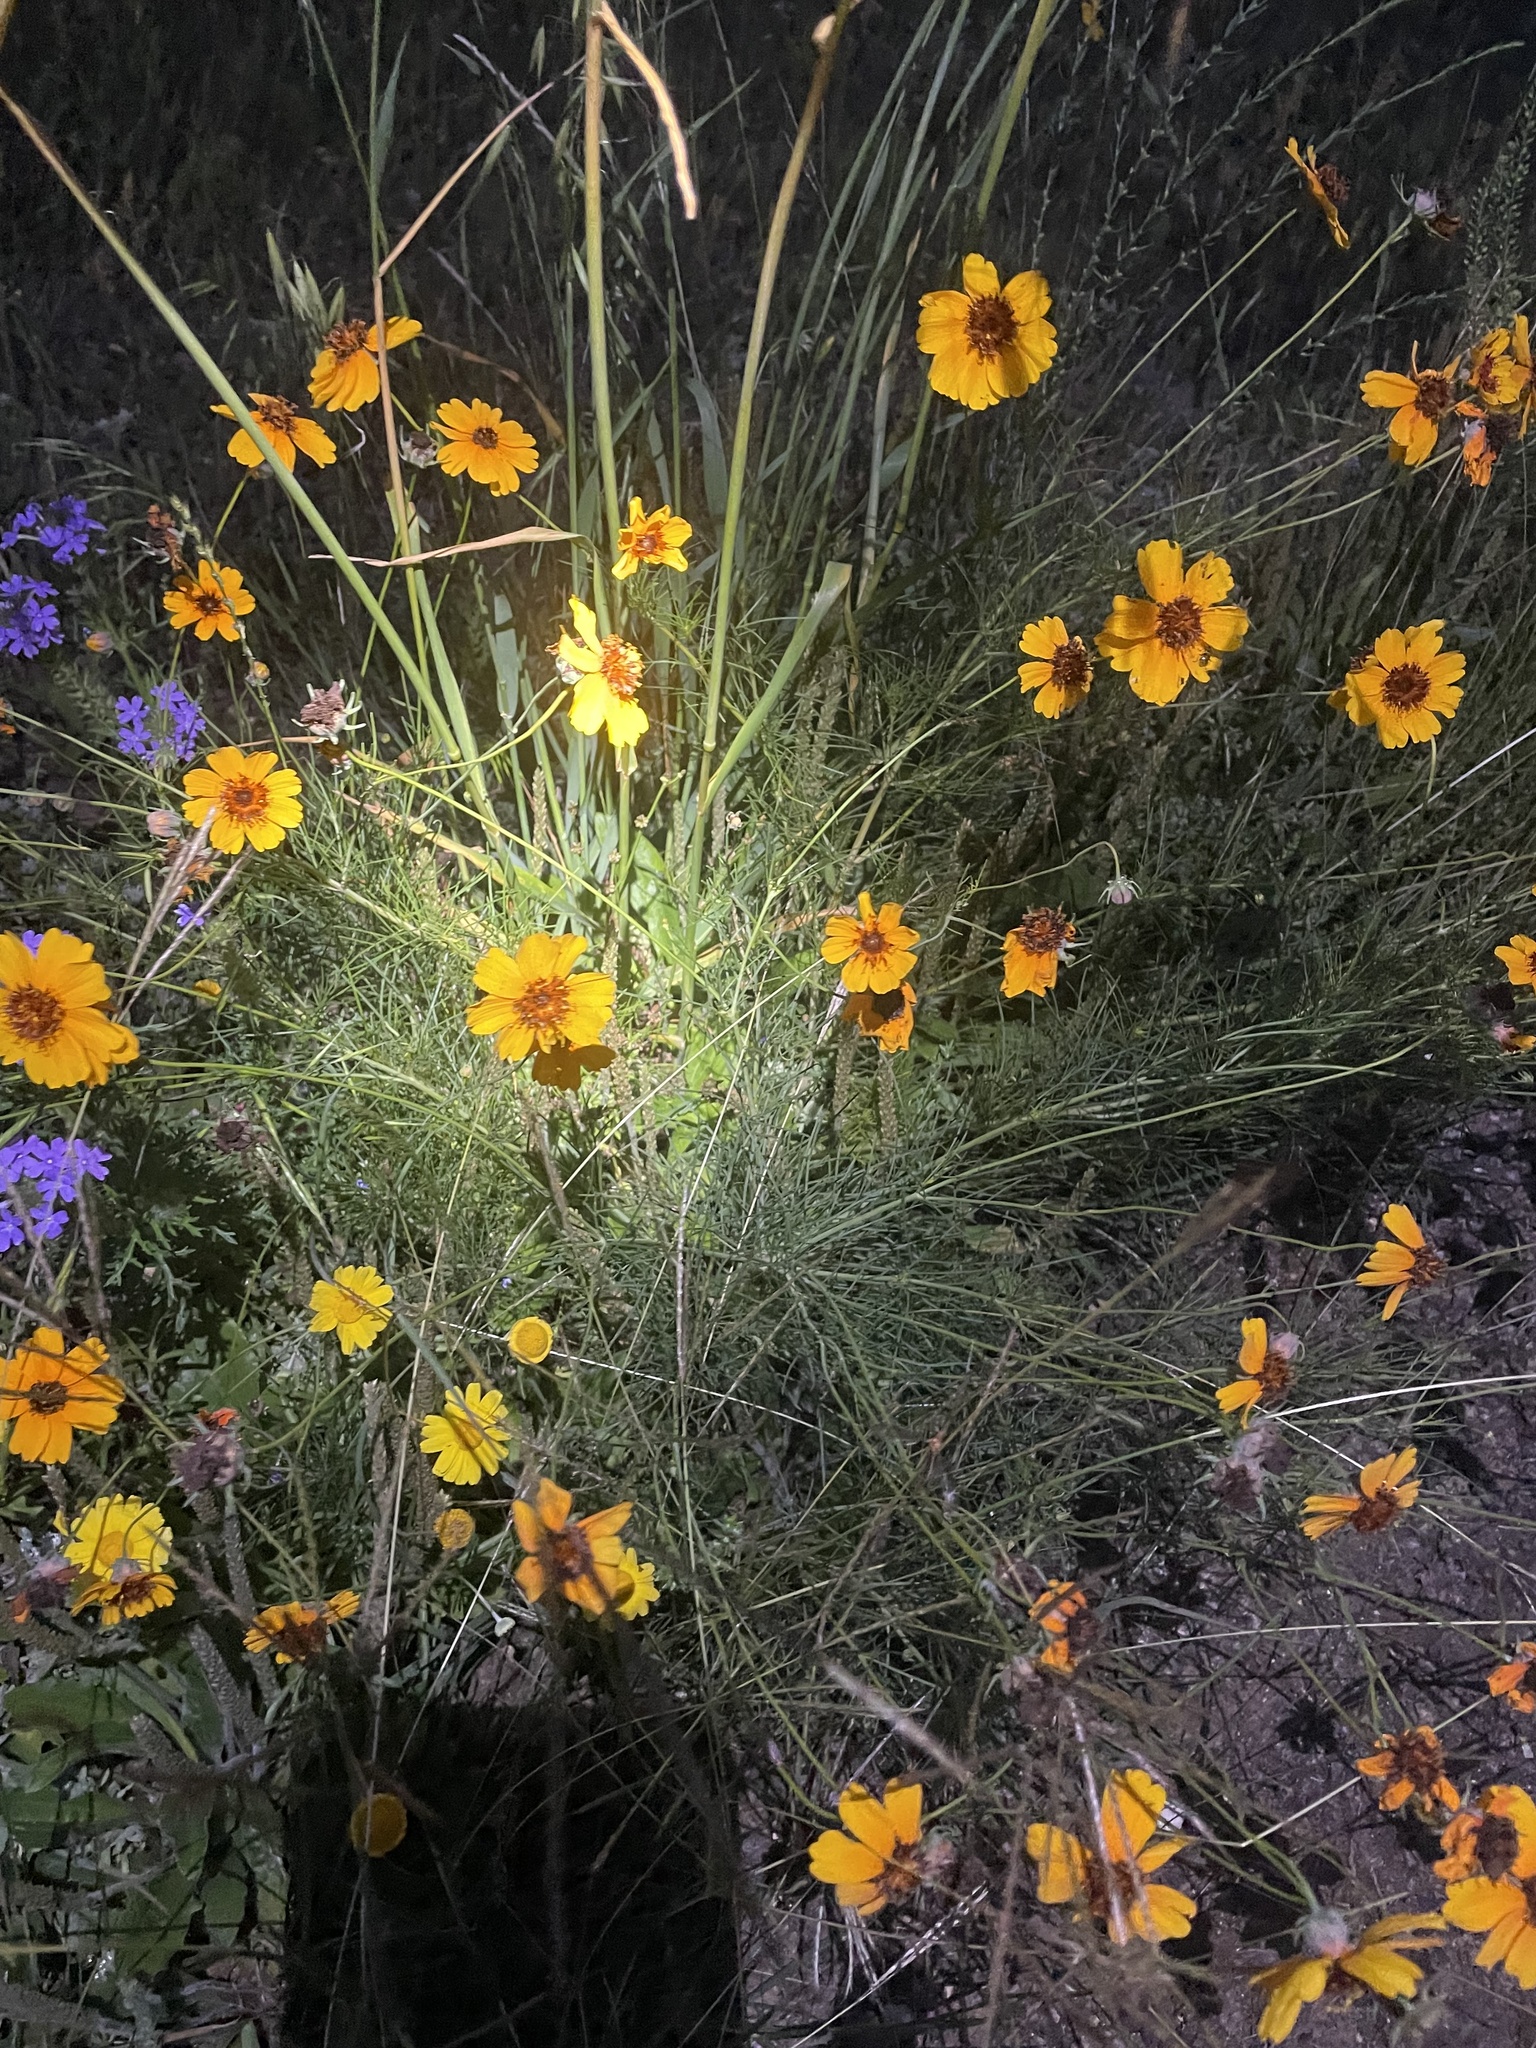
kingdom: Plantae
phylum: Tracheophyta
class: Magnoliopsida
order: Asterales
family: Asteraceae
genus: Thelesperma
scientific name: Thelesperma filifolium
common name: Stiff greenthread
